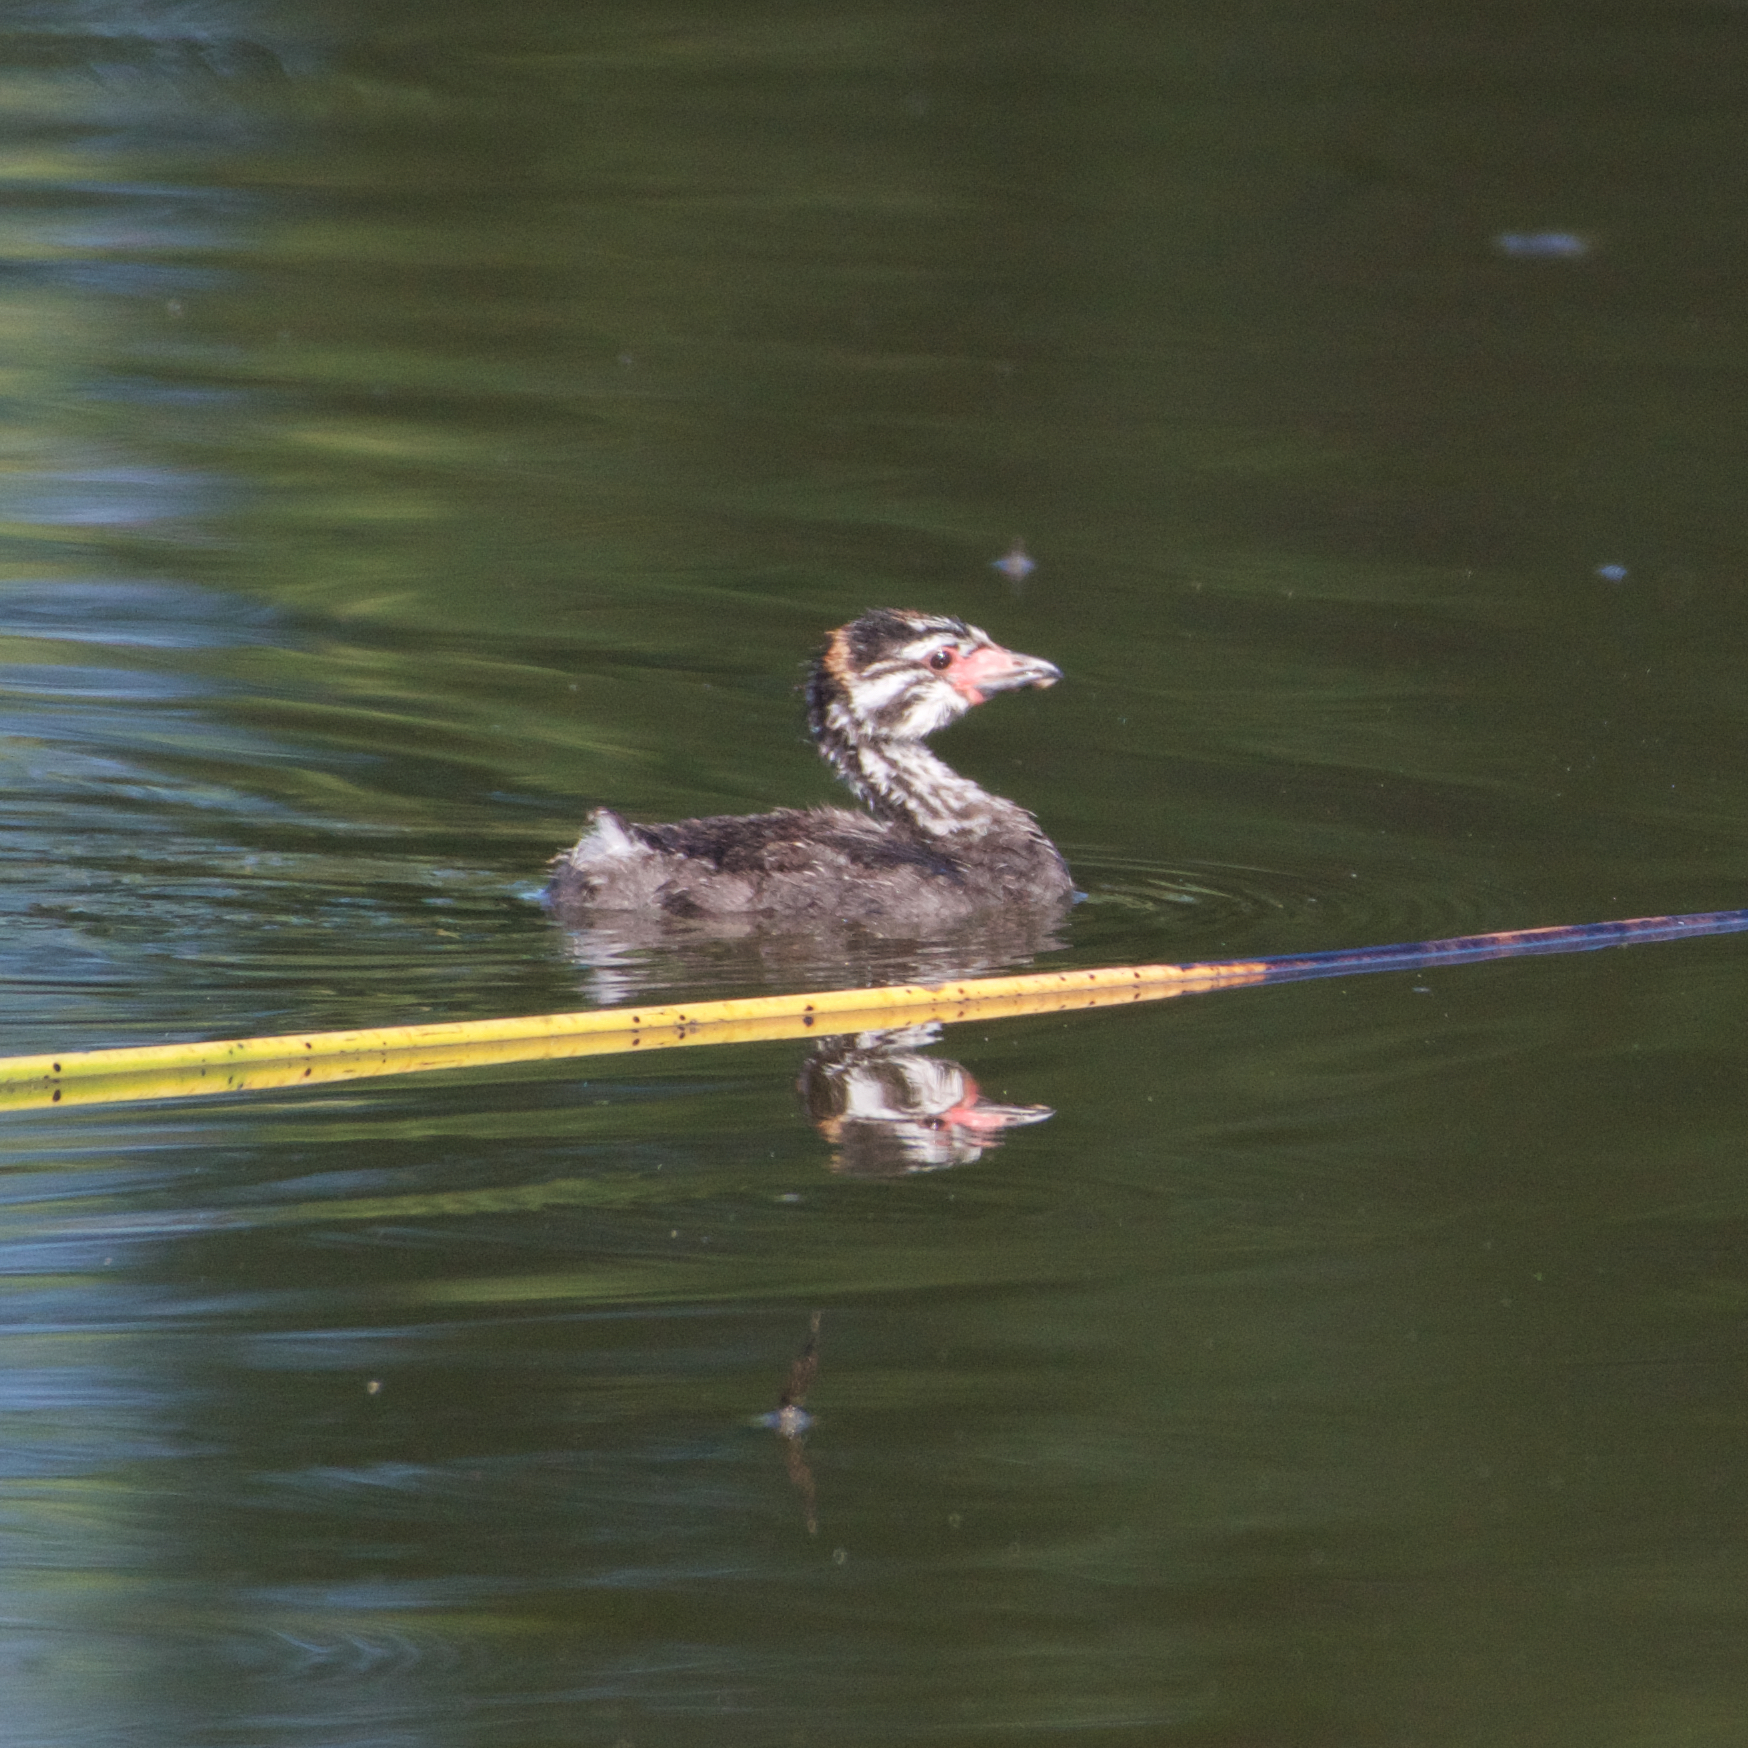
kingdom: Animalia
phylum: Chordata
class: Aves
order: Podicipediformes
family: Podicipedidae
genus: Podilymbus
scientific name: Podilymbus podiceps
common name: Pied-billed grebe
